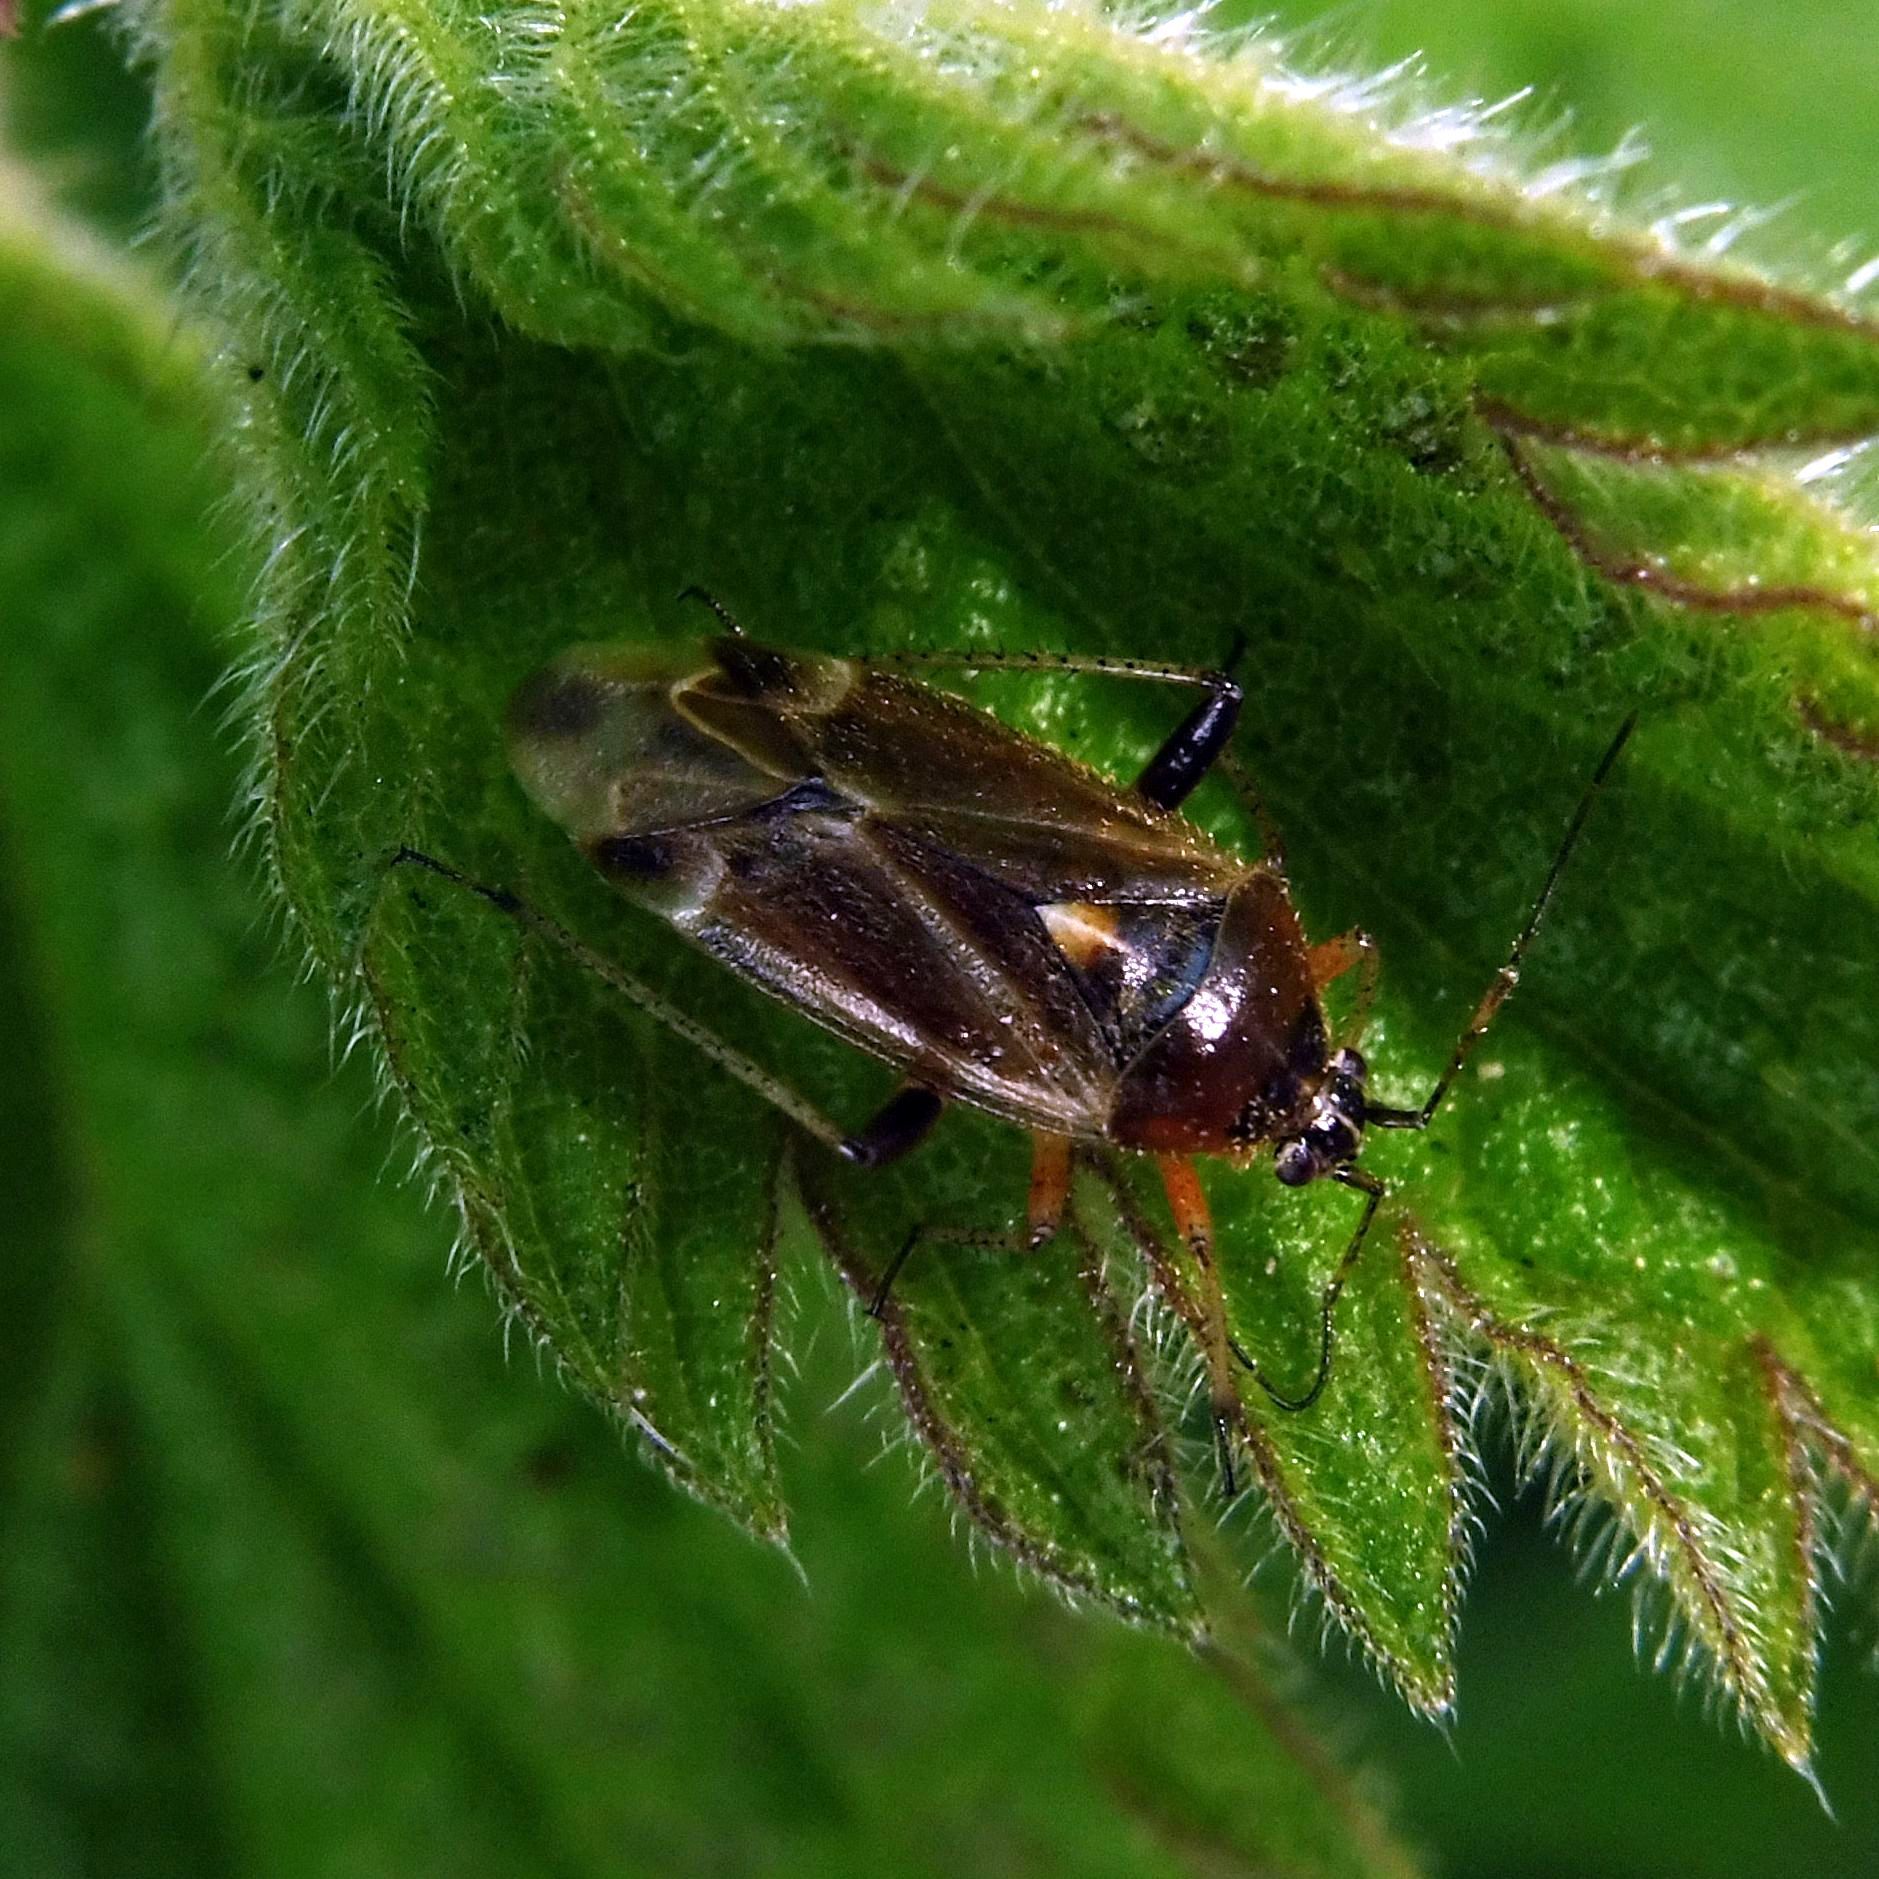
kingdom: Animalia
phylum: Arthropoda
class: Insecta
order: Hemiptera
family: Miridae
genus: Harpocera
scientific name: Harpocera thoracica
